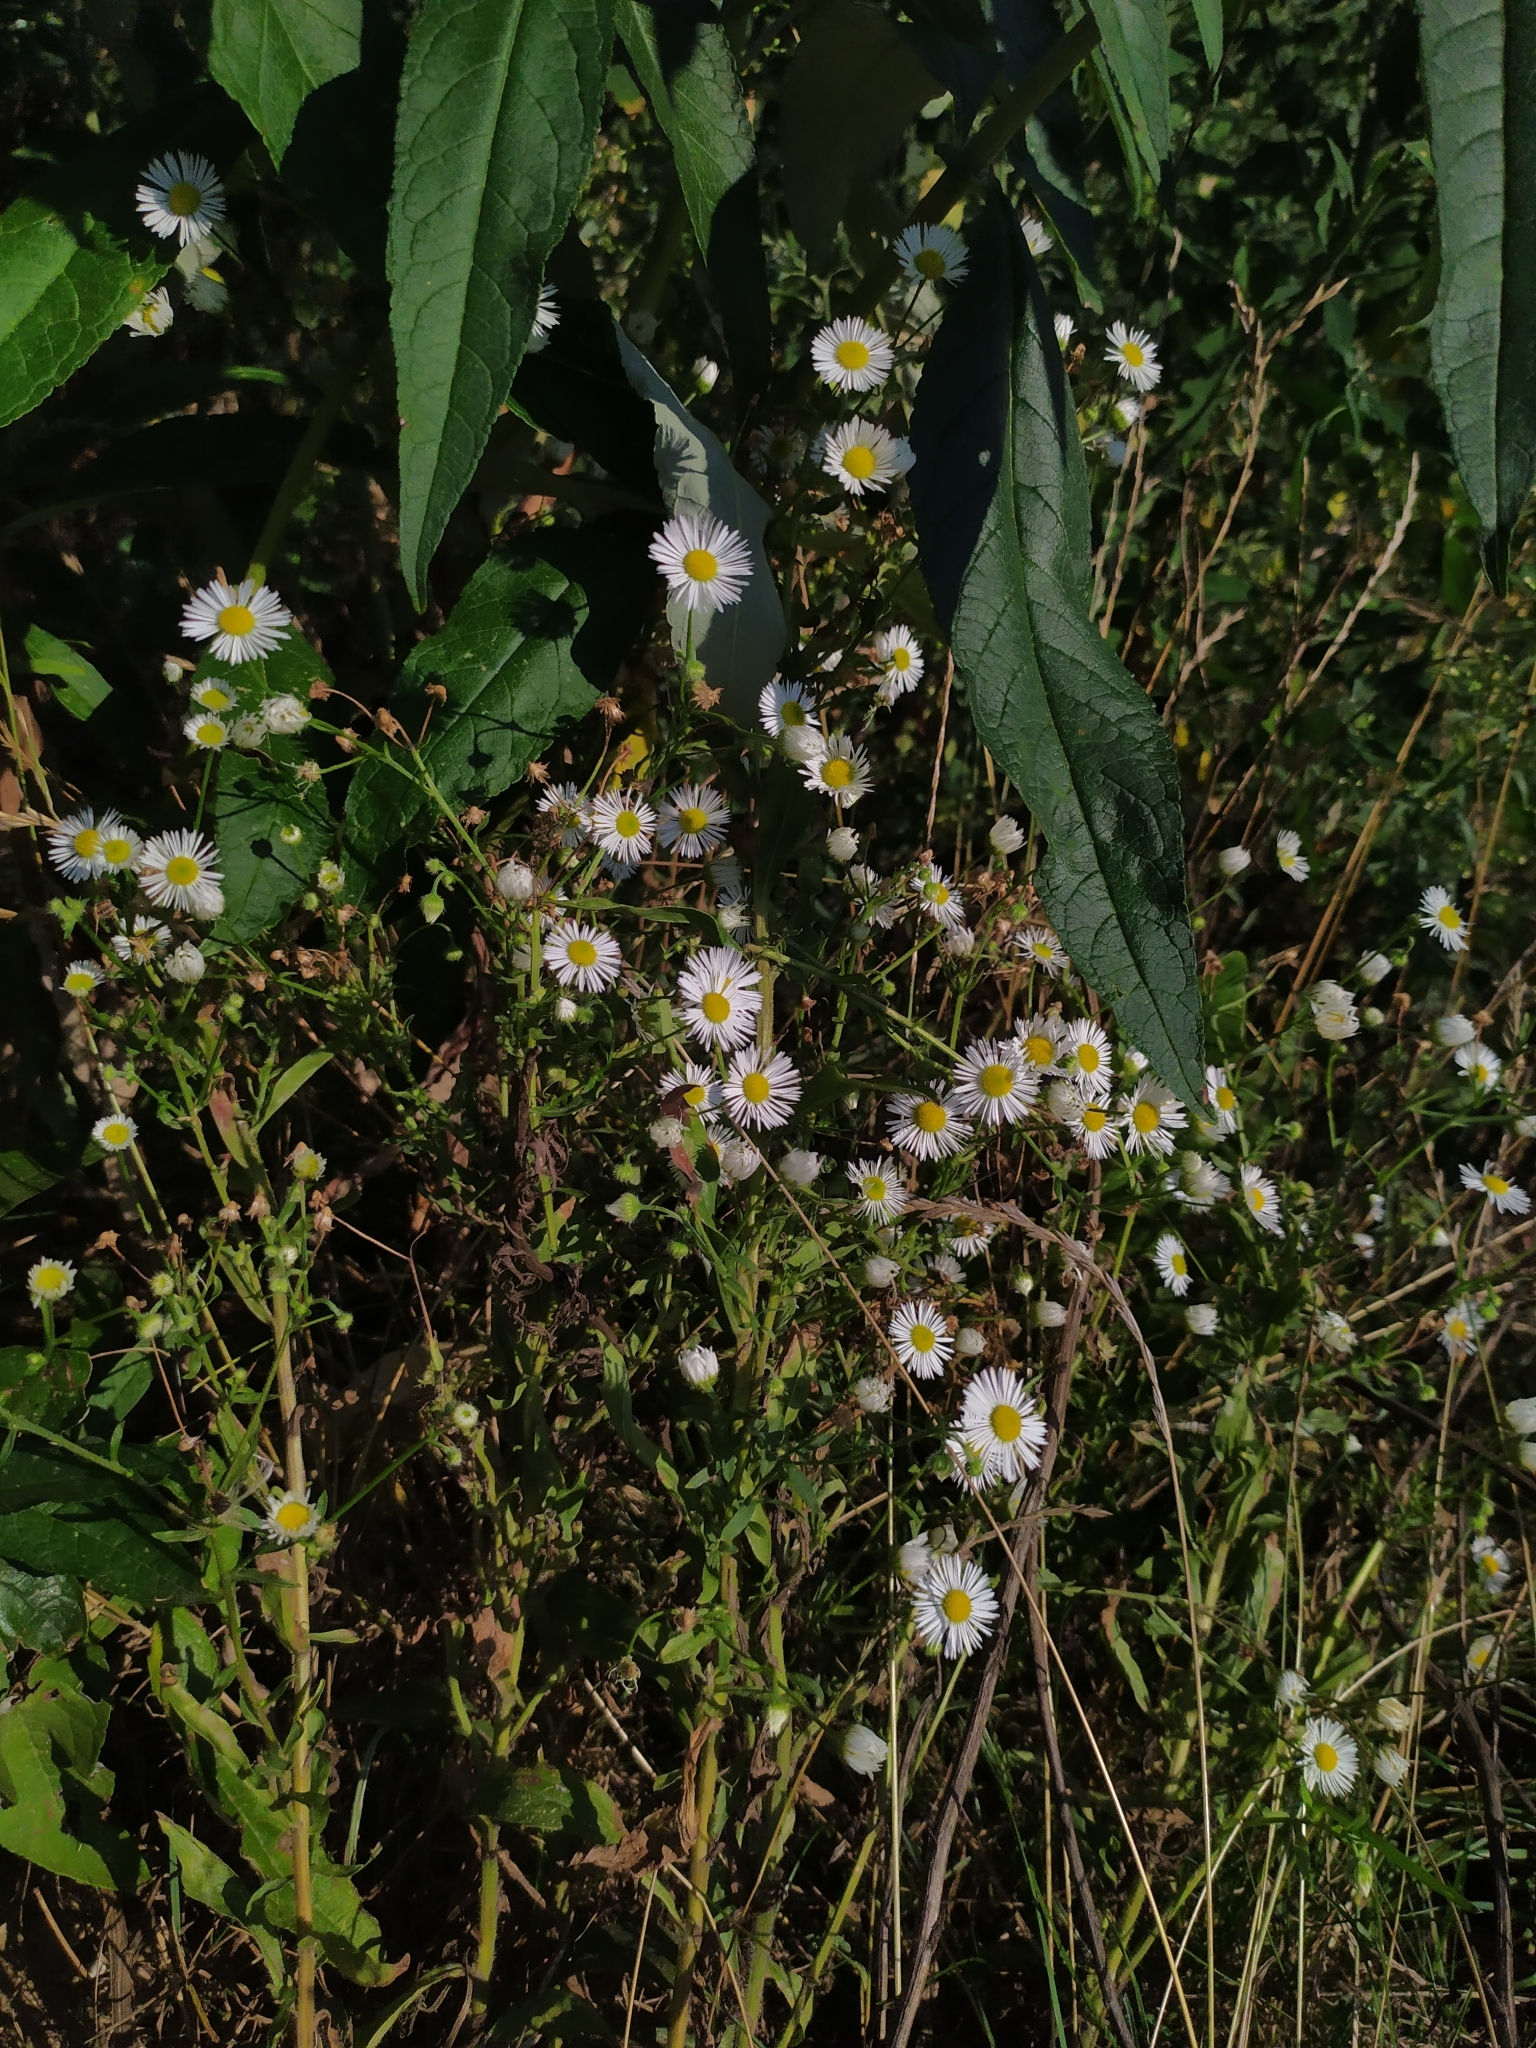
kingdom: Plantae
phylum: Tracheophyta
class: Magnoliopsida
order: Asterales
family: Asteraceae
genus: Erigeron
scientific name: Erigeron annuus
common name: Tall fleabane
